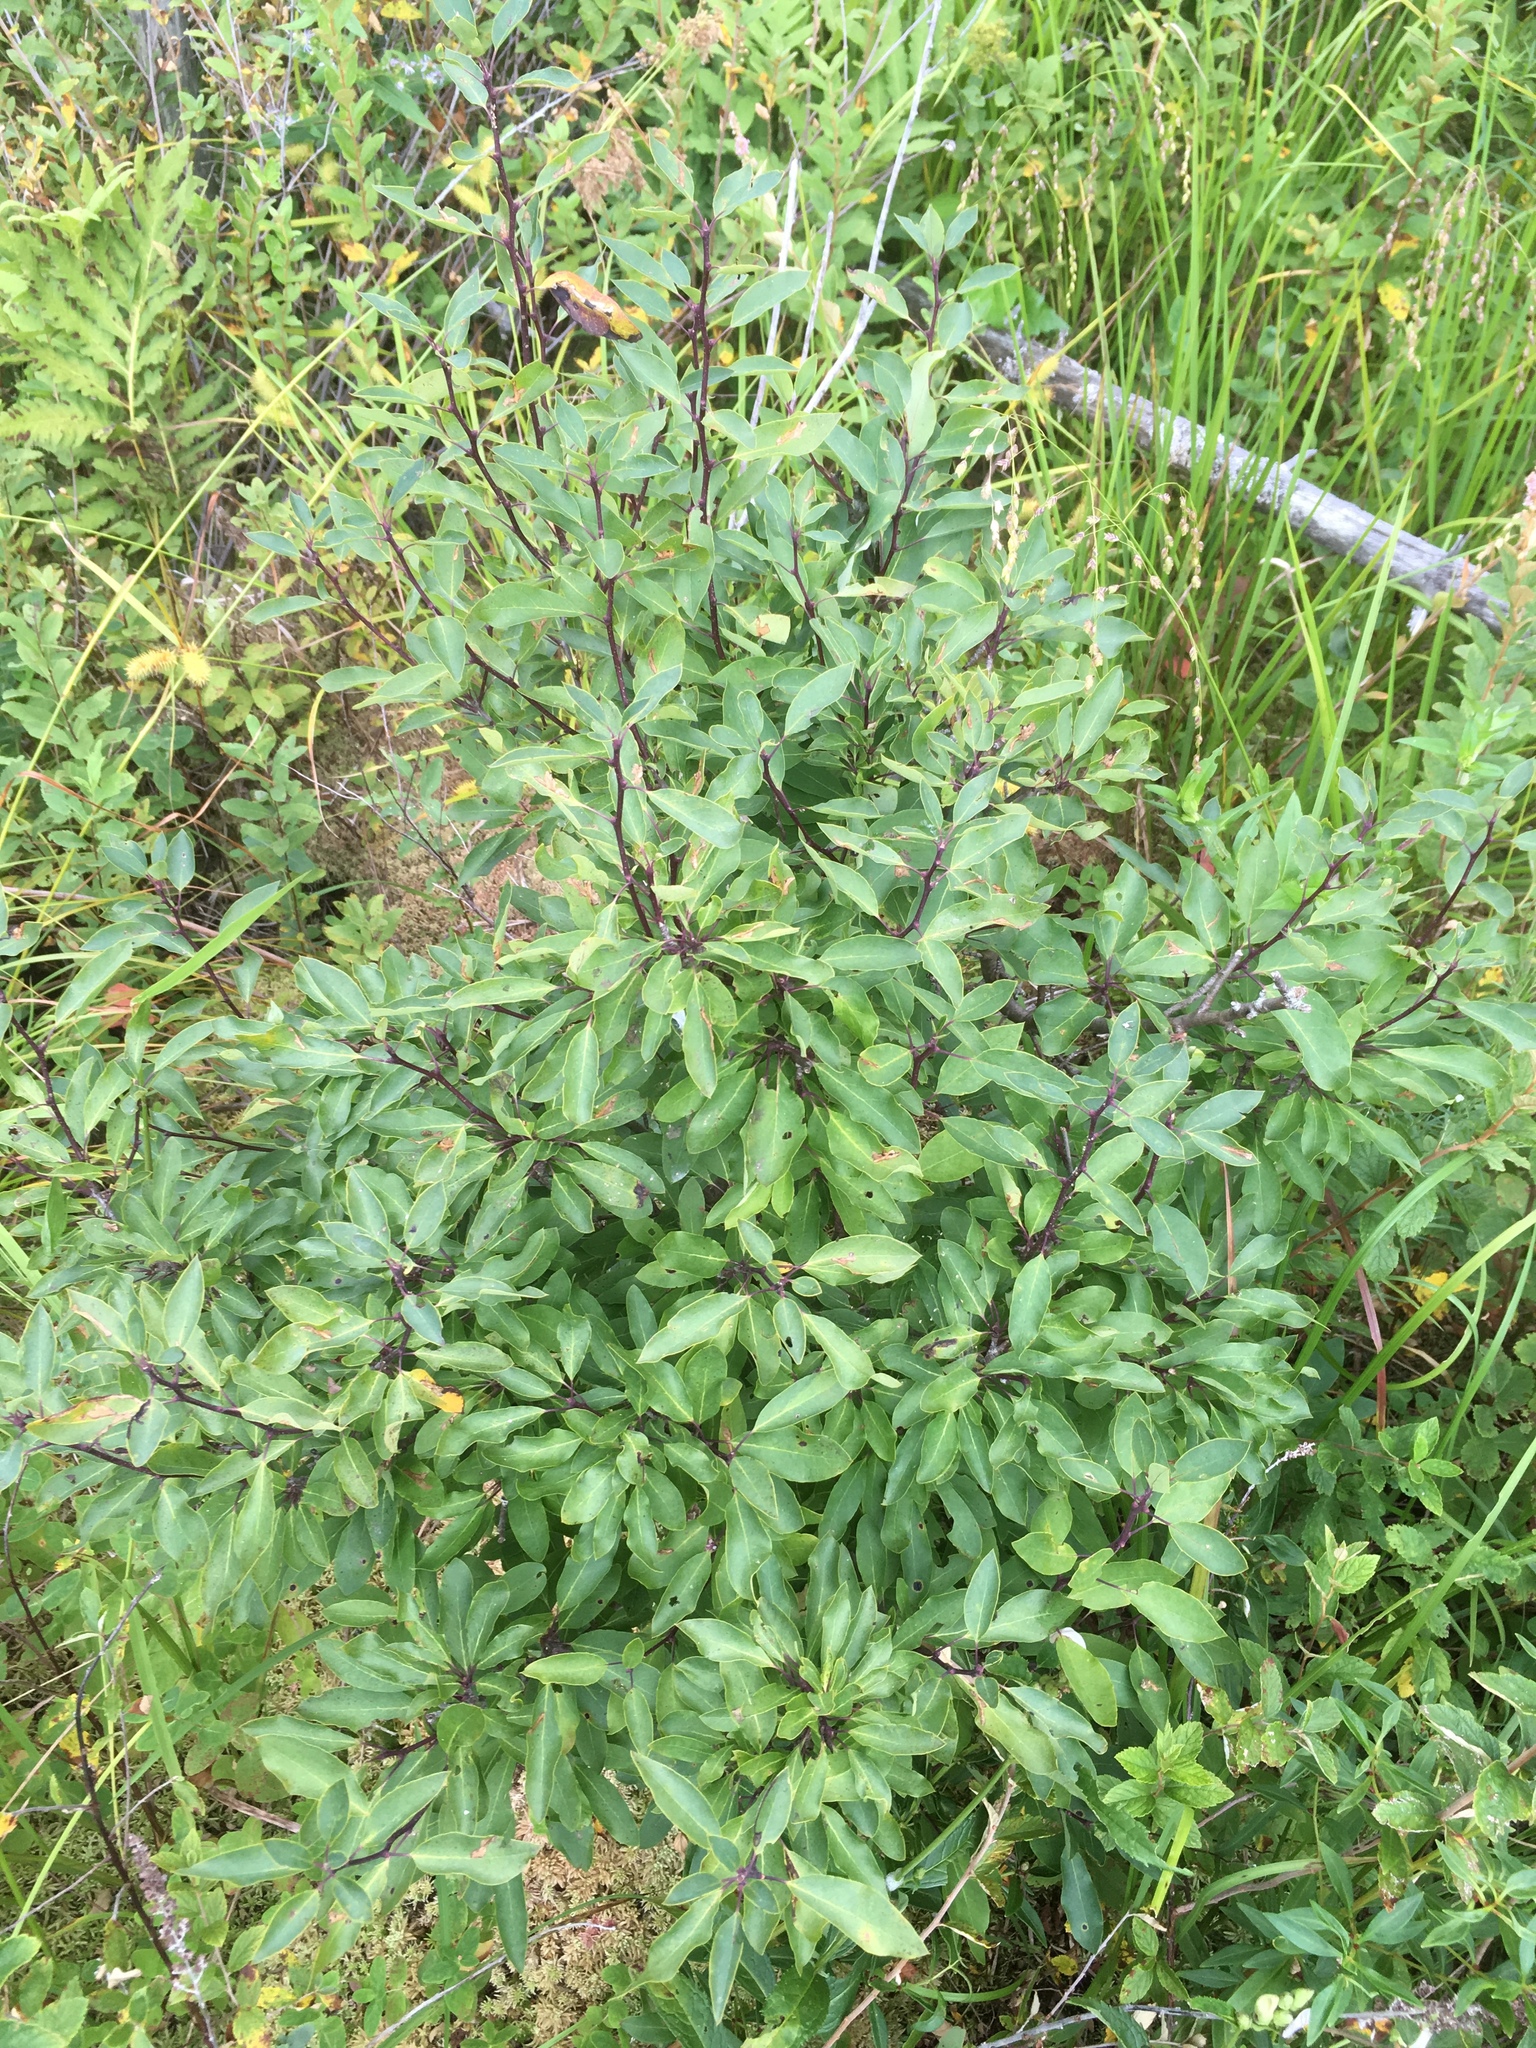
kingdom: Plantae
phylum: Tracheophyta
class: Magnoliopsida
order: Aquifoliales
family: Aquifoliaceae
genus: Ilex
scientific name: Ilex mucronata
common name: Catberry
